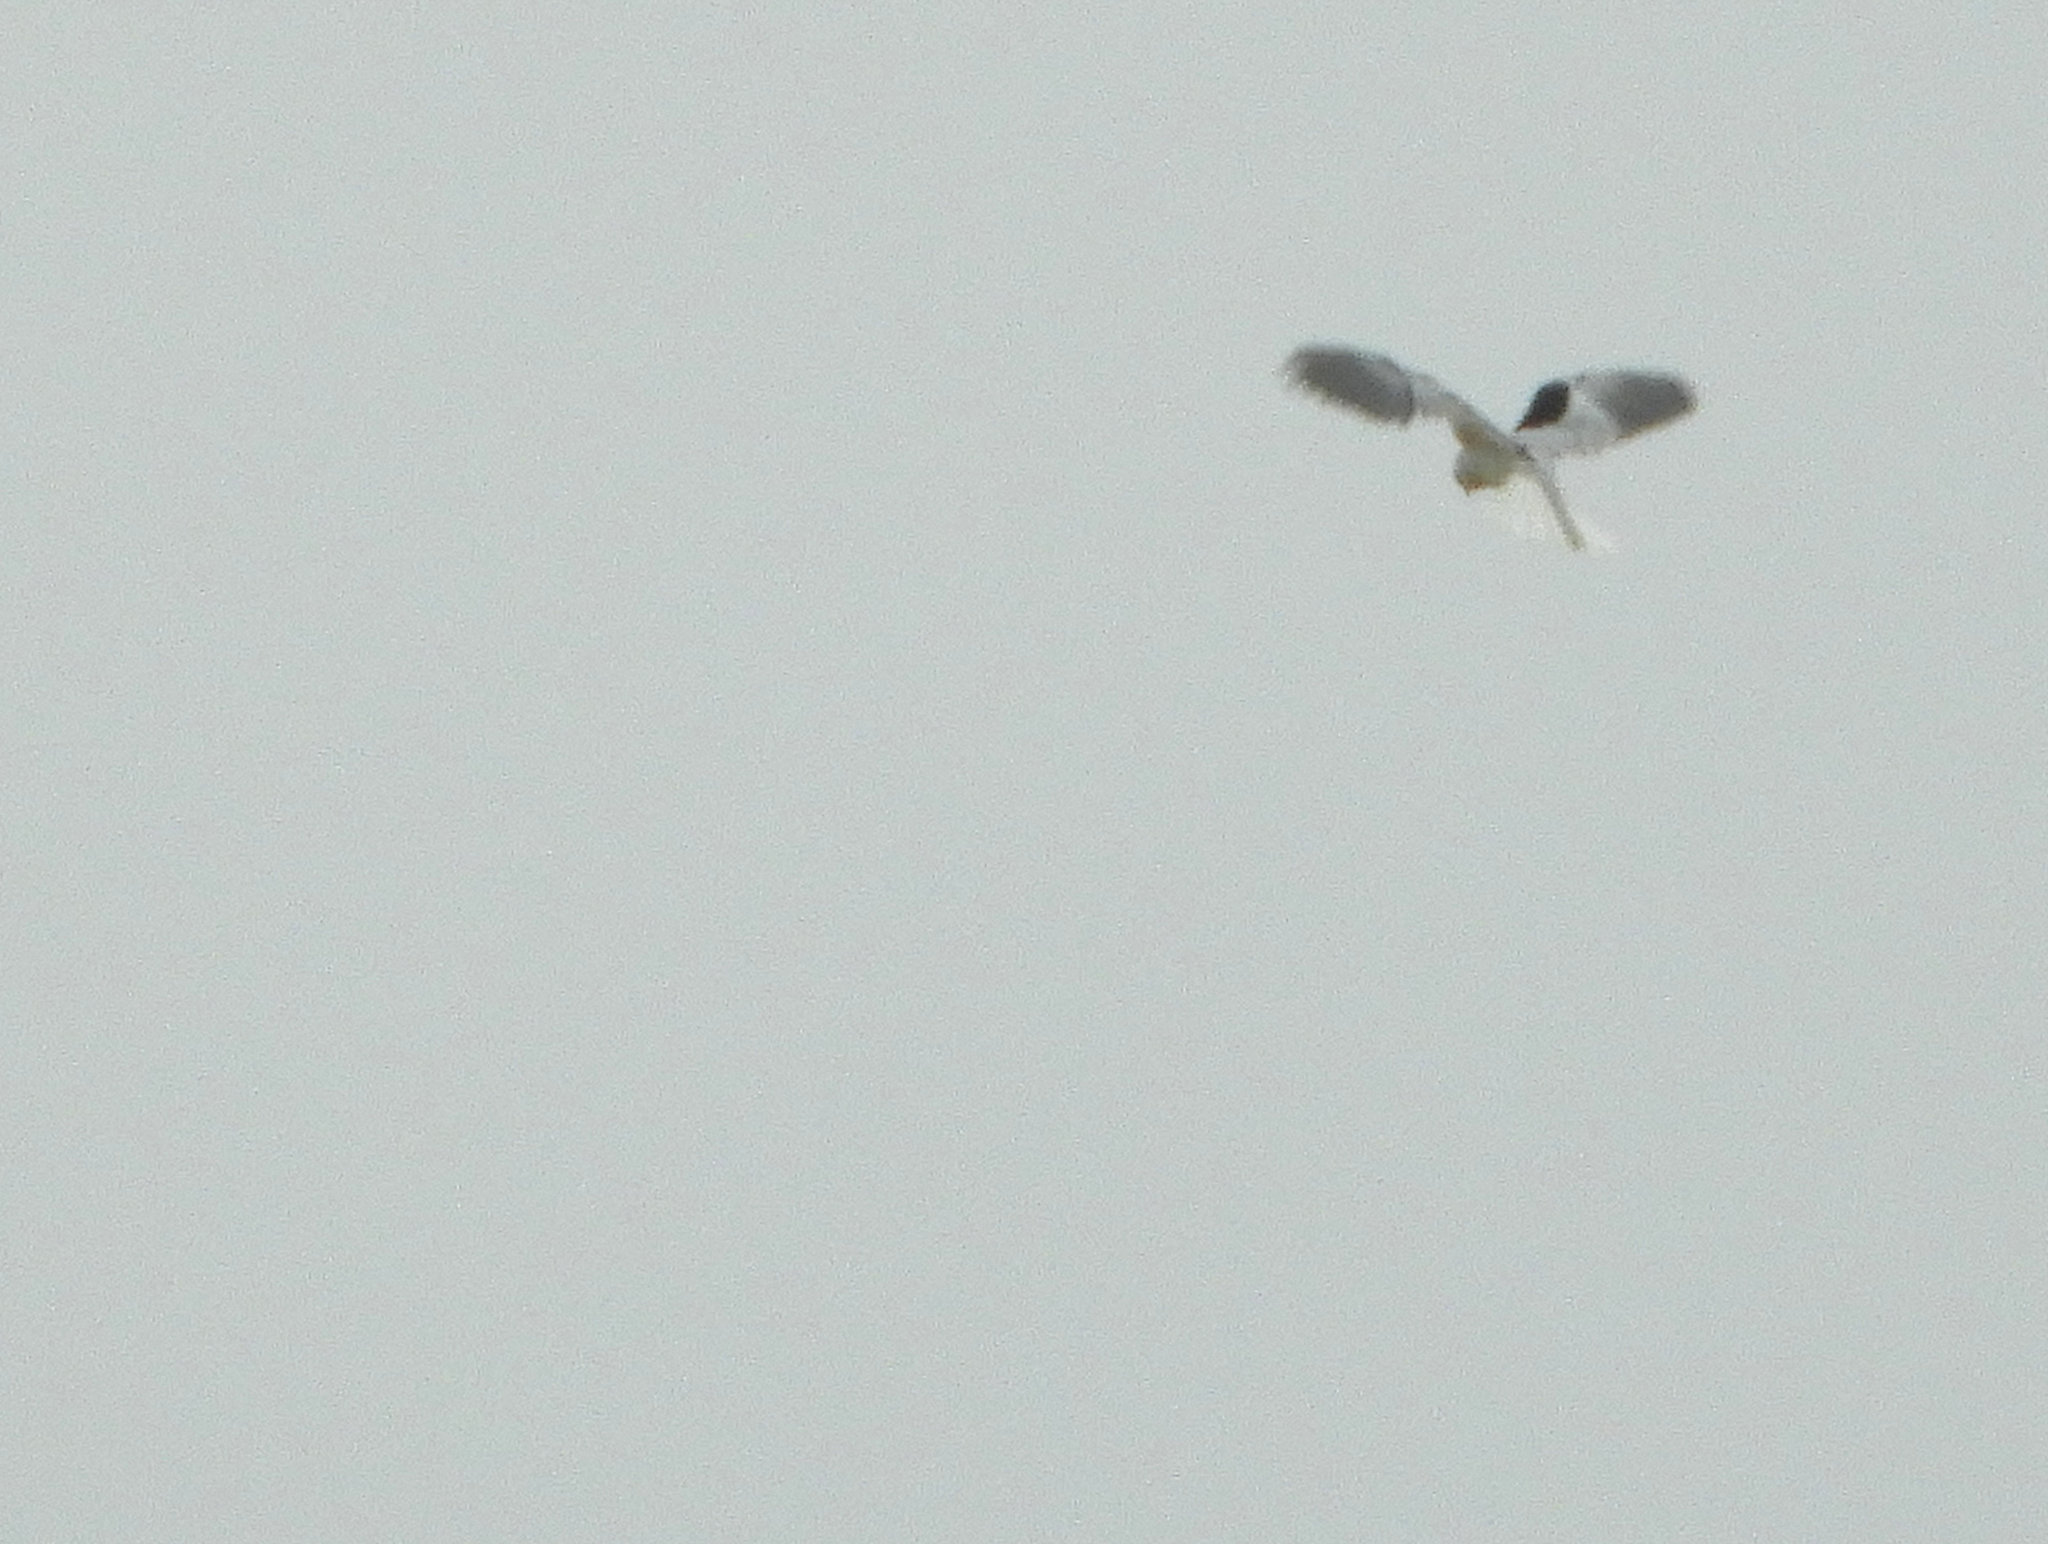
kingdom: Animalia
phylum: Chordata
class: Aves
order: Accipitriformes
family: Accipitridae
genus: Elanus
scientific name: Elanus leucurus
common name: White-tailed kite
